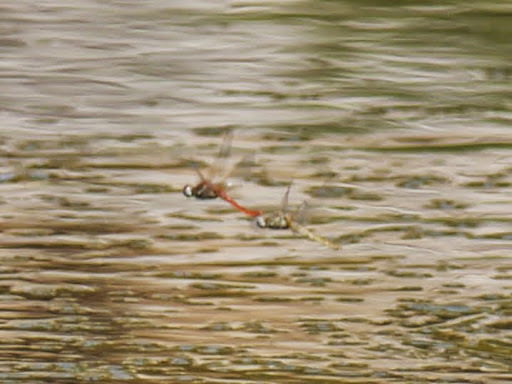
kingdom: Animalia
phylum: Arthropoda
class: Insecta
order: Odonata
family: Libellulidae
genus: Sympetrum
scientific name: Sympetrum fonscolombii
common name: Red-veined darter
